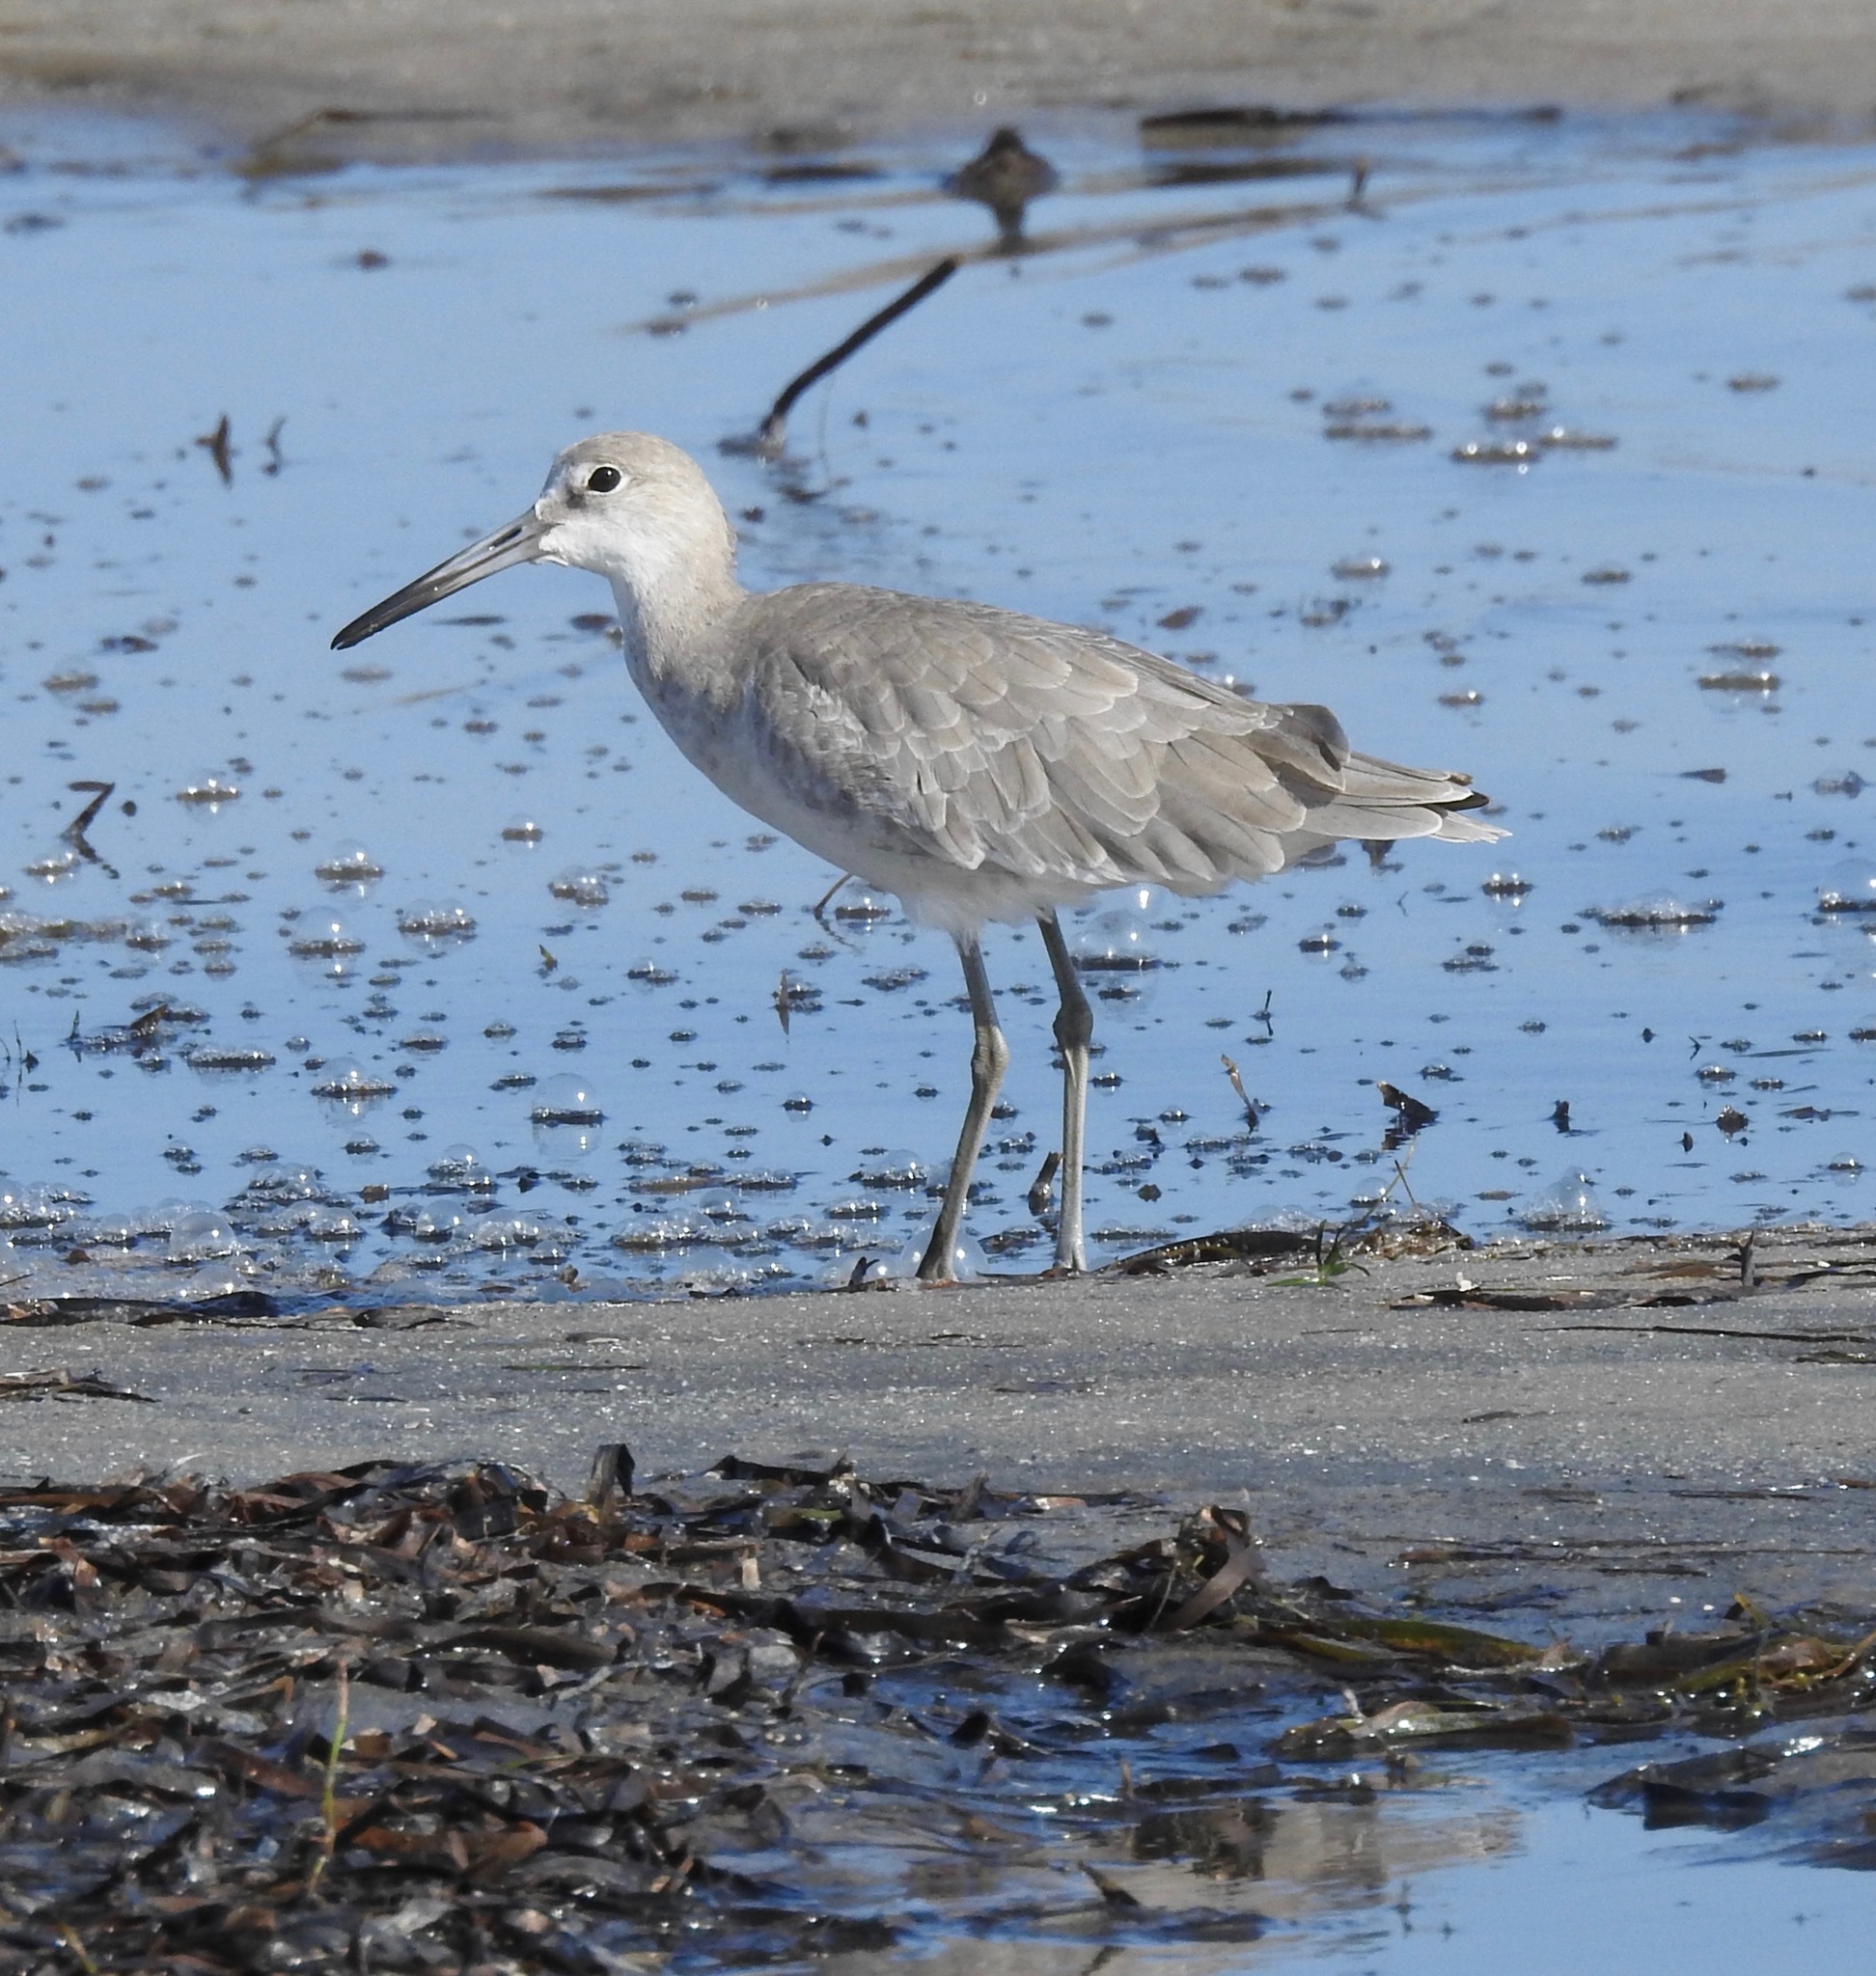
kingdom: Animalia
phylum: Chordata
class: Aves
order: Charadriiformes
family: Scolopacidae
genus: Tringa
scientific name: Tringa semipalmata
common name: Willet
